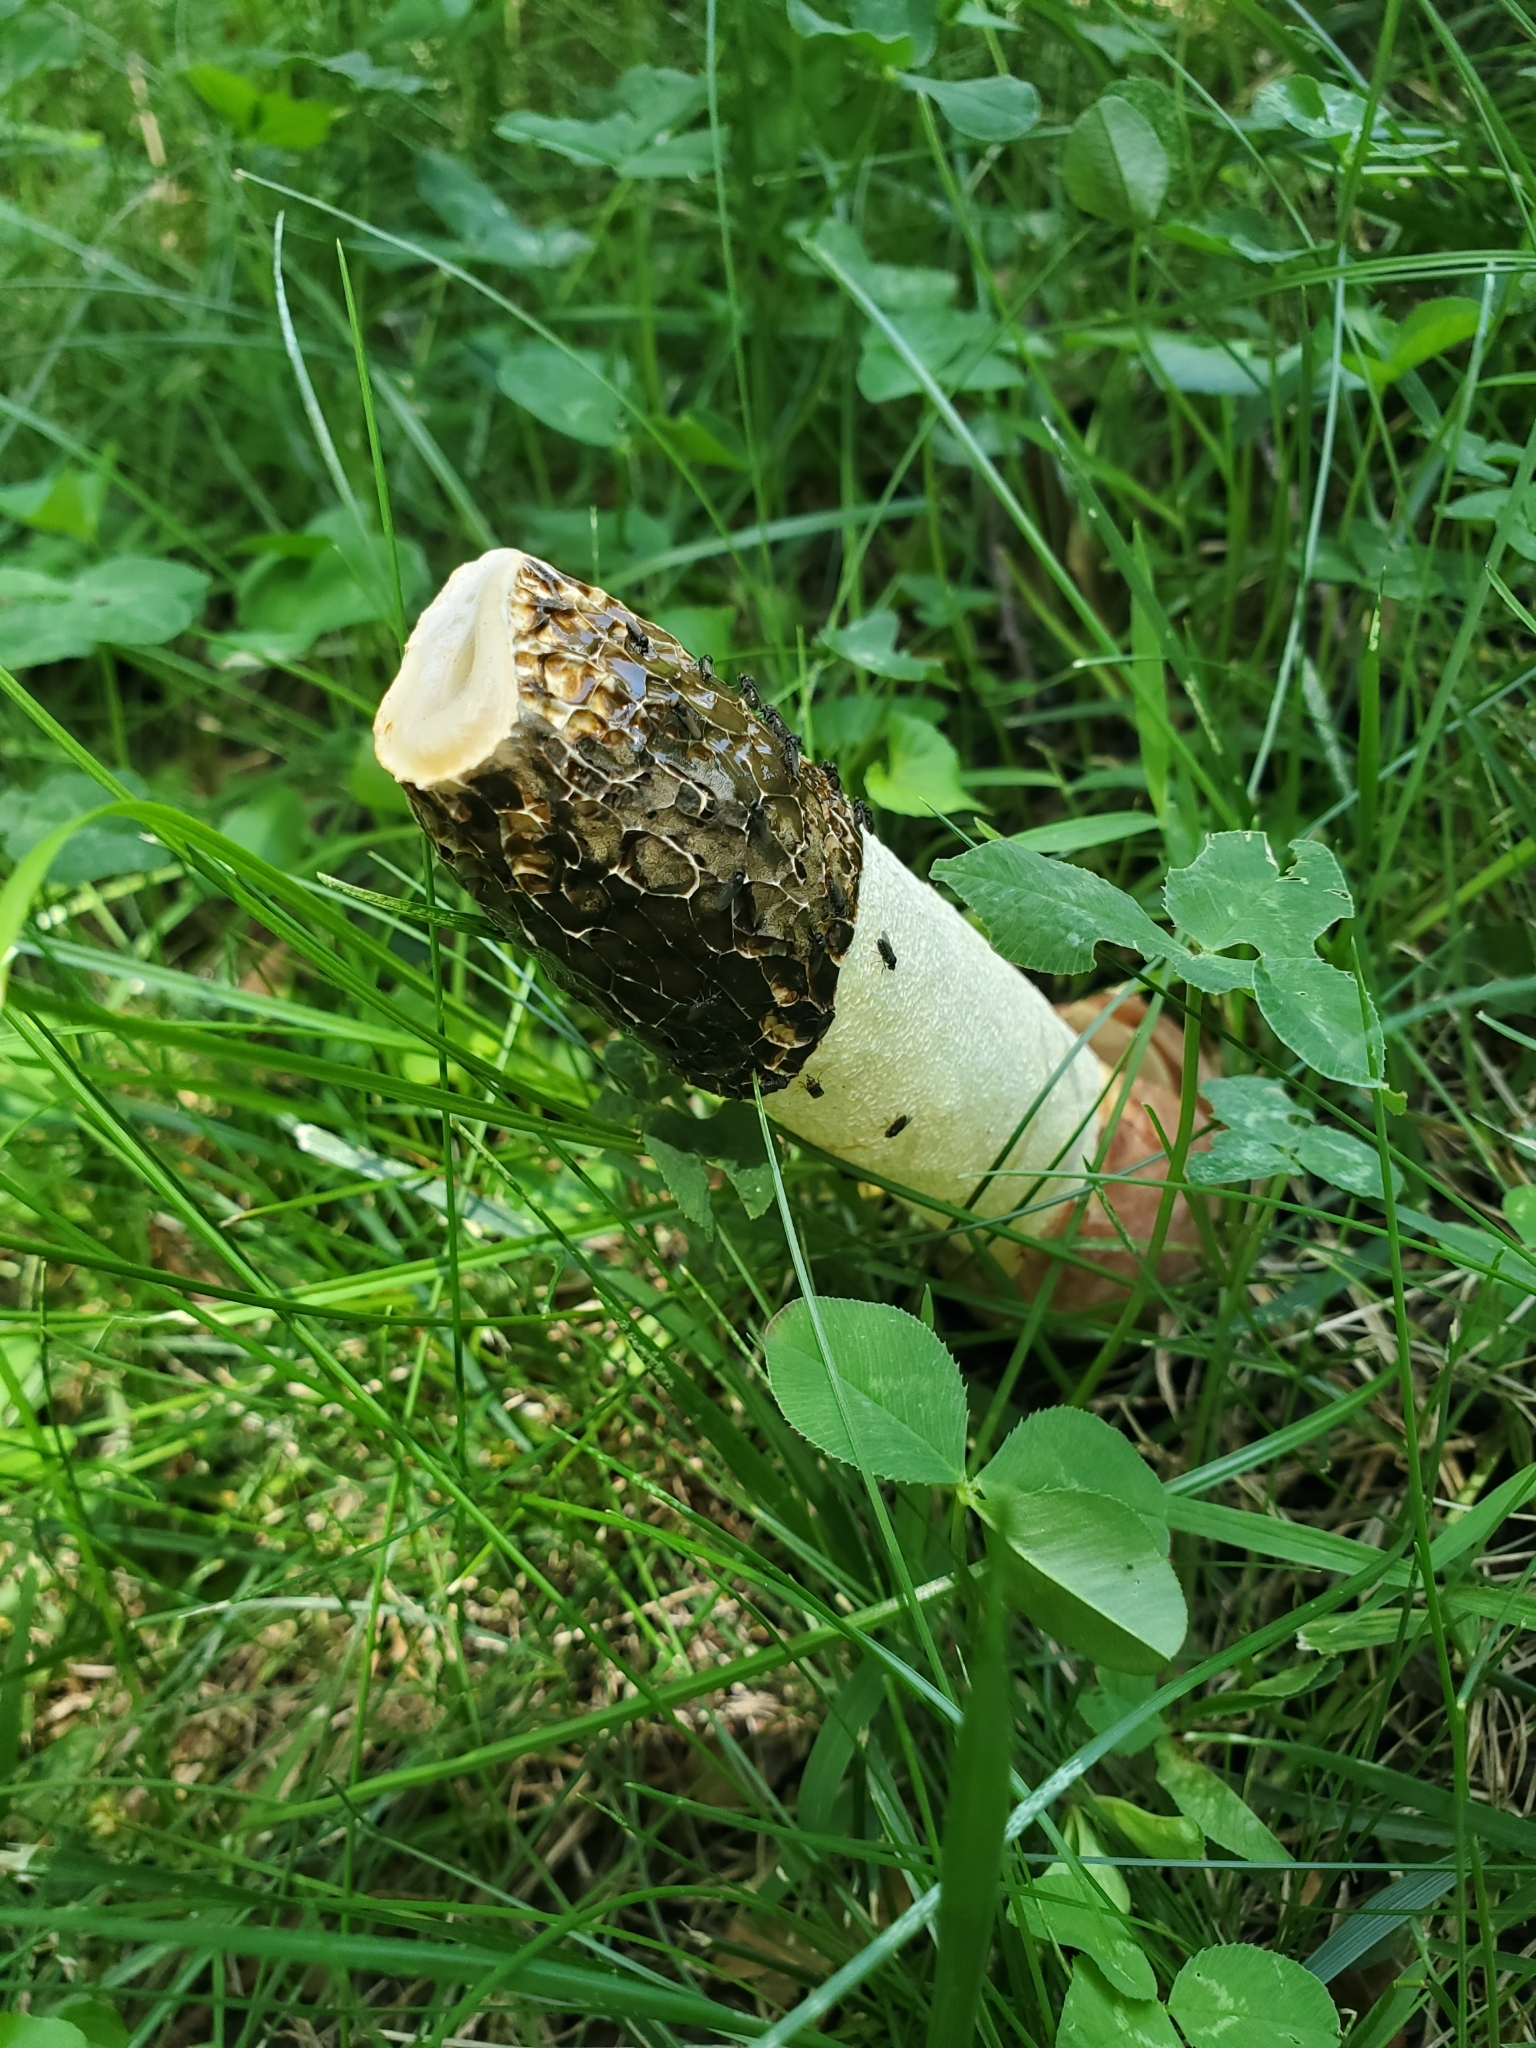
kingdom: Fungi
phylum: Basidiomycota
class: Agaricomycetes
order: Phallales
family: Phallaceae
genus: Phallus
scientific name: Phallus hadriani
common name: Sand stinkhorn
